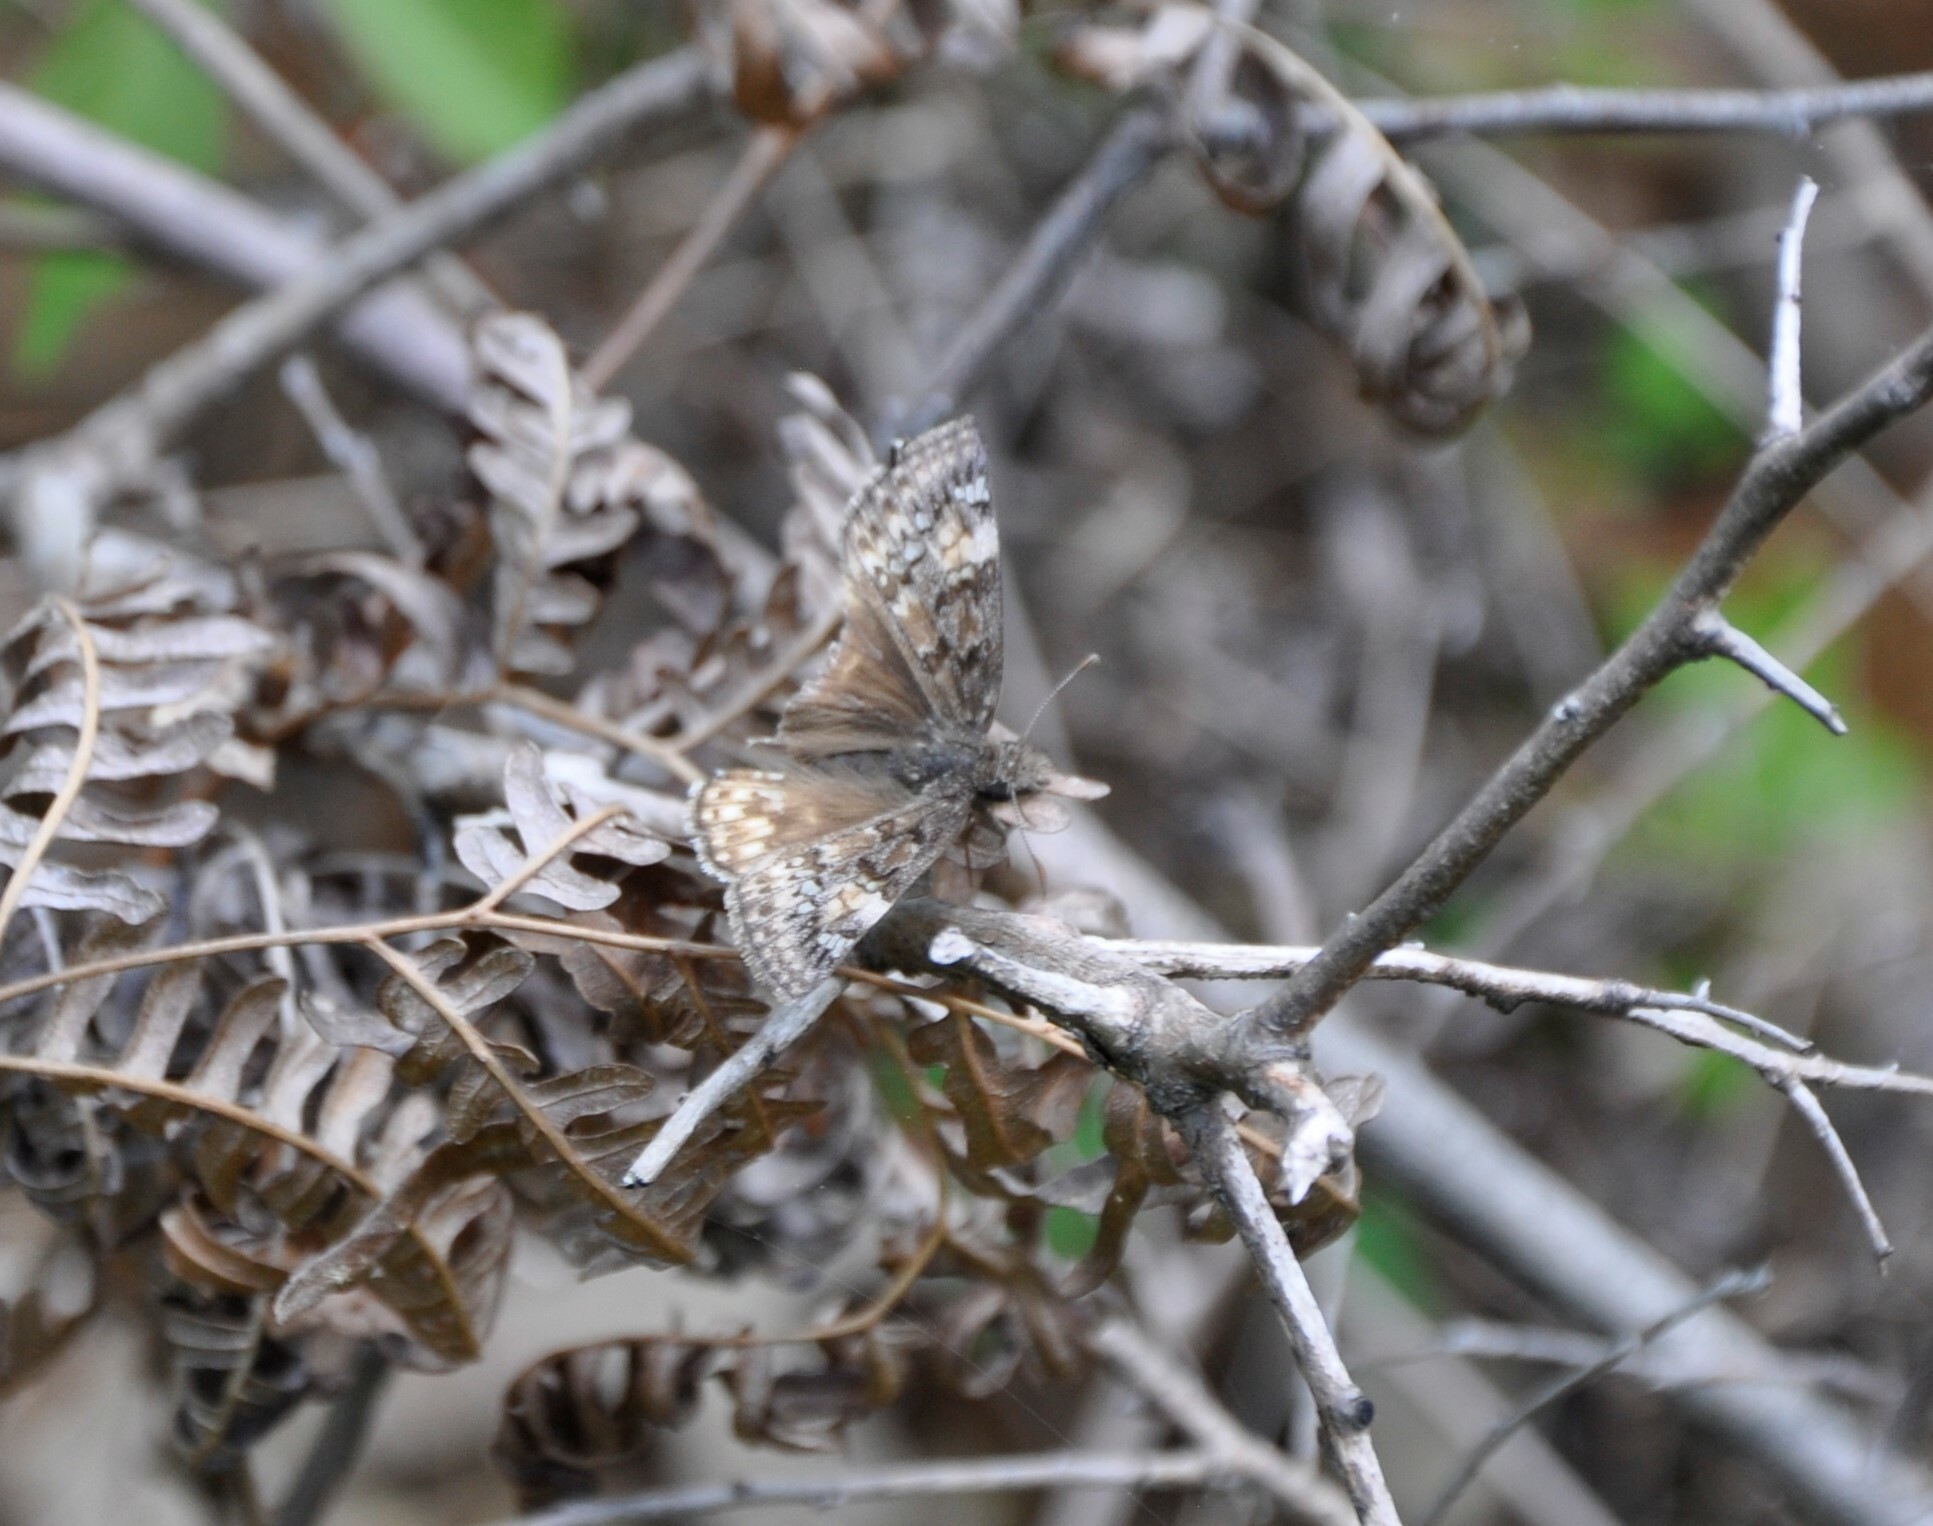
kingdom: Animalia
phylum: Arthropoda
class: Insecta
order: Lepidoptera
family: Hesperiidae
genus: Erynnis
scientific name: Erynnis juvenalis
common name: Juvenal's duskywing
